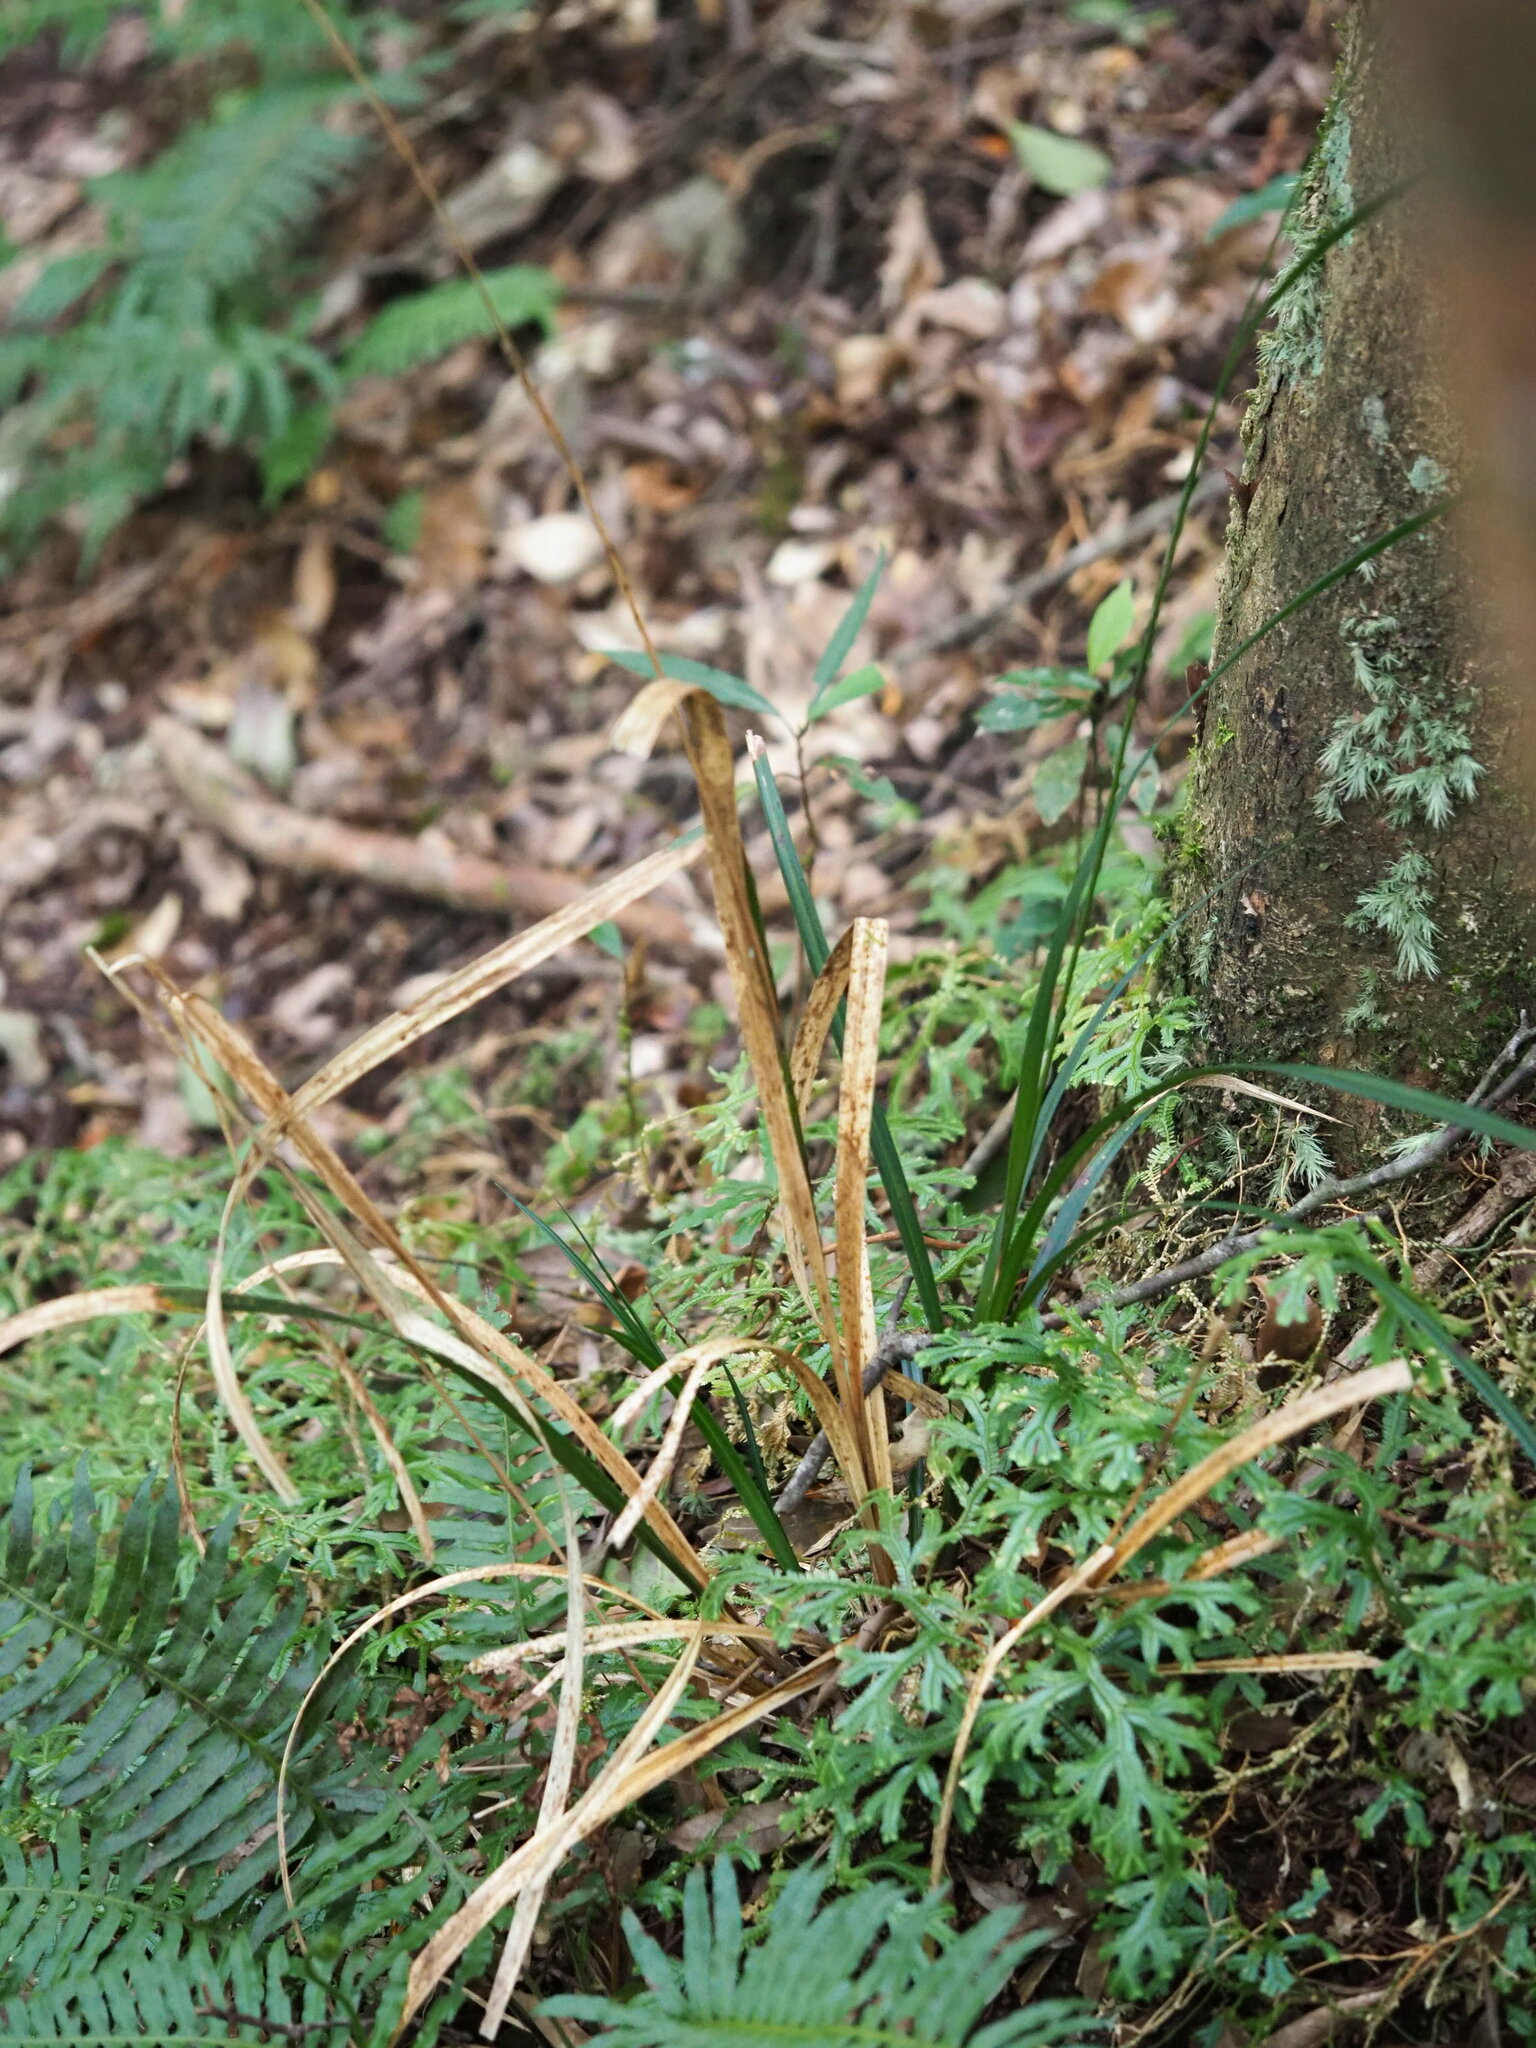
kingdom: Plantae
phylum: Tracheophyta
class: Liliopsida
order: Poales
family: Cyperaceae
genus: Carex
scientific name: Carex perakensis
